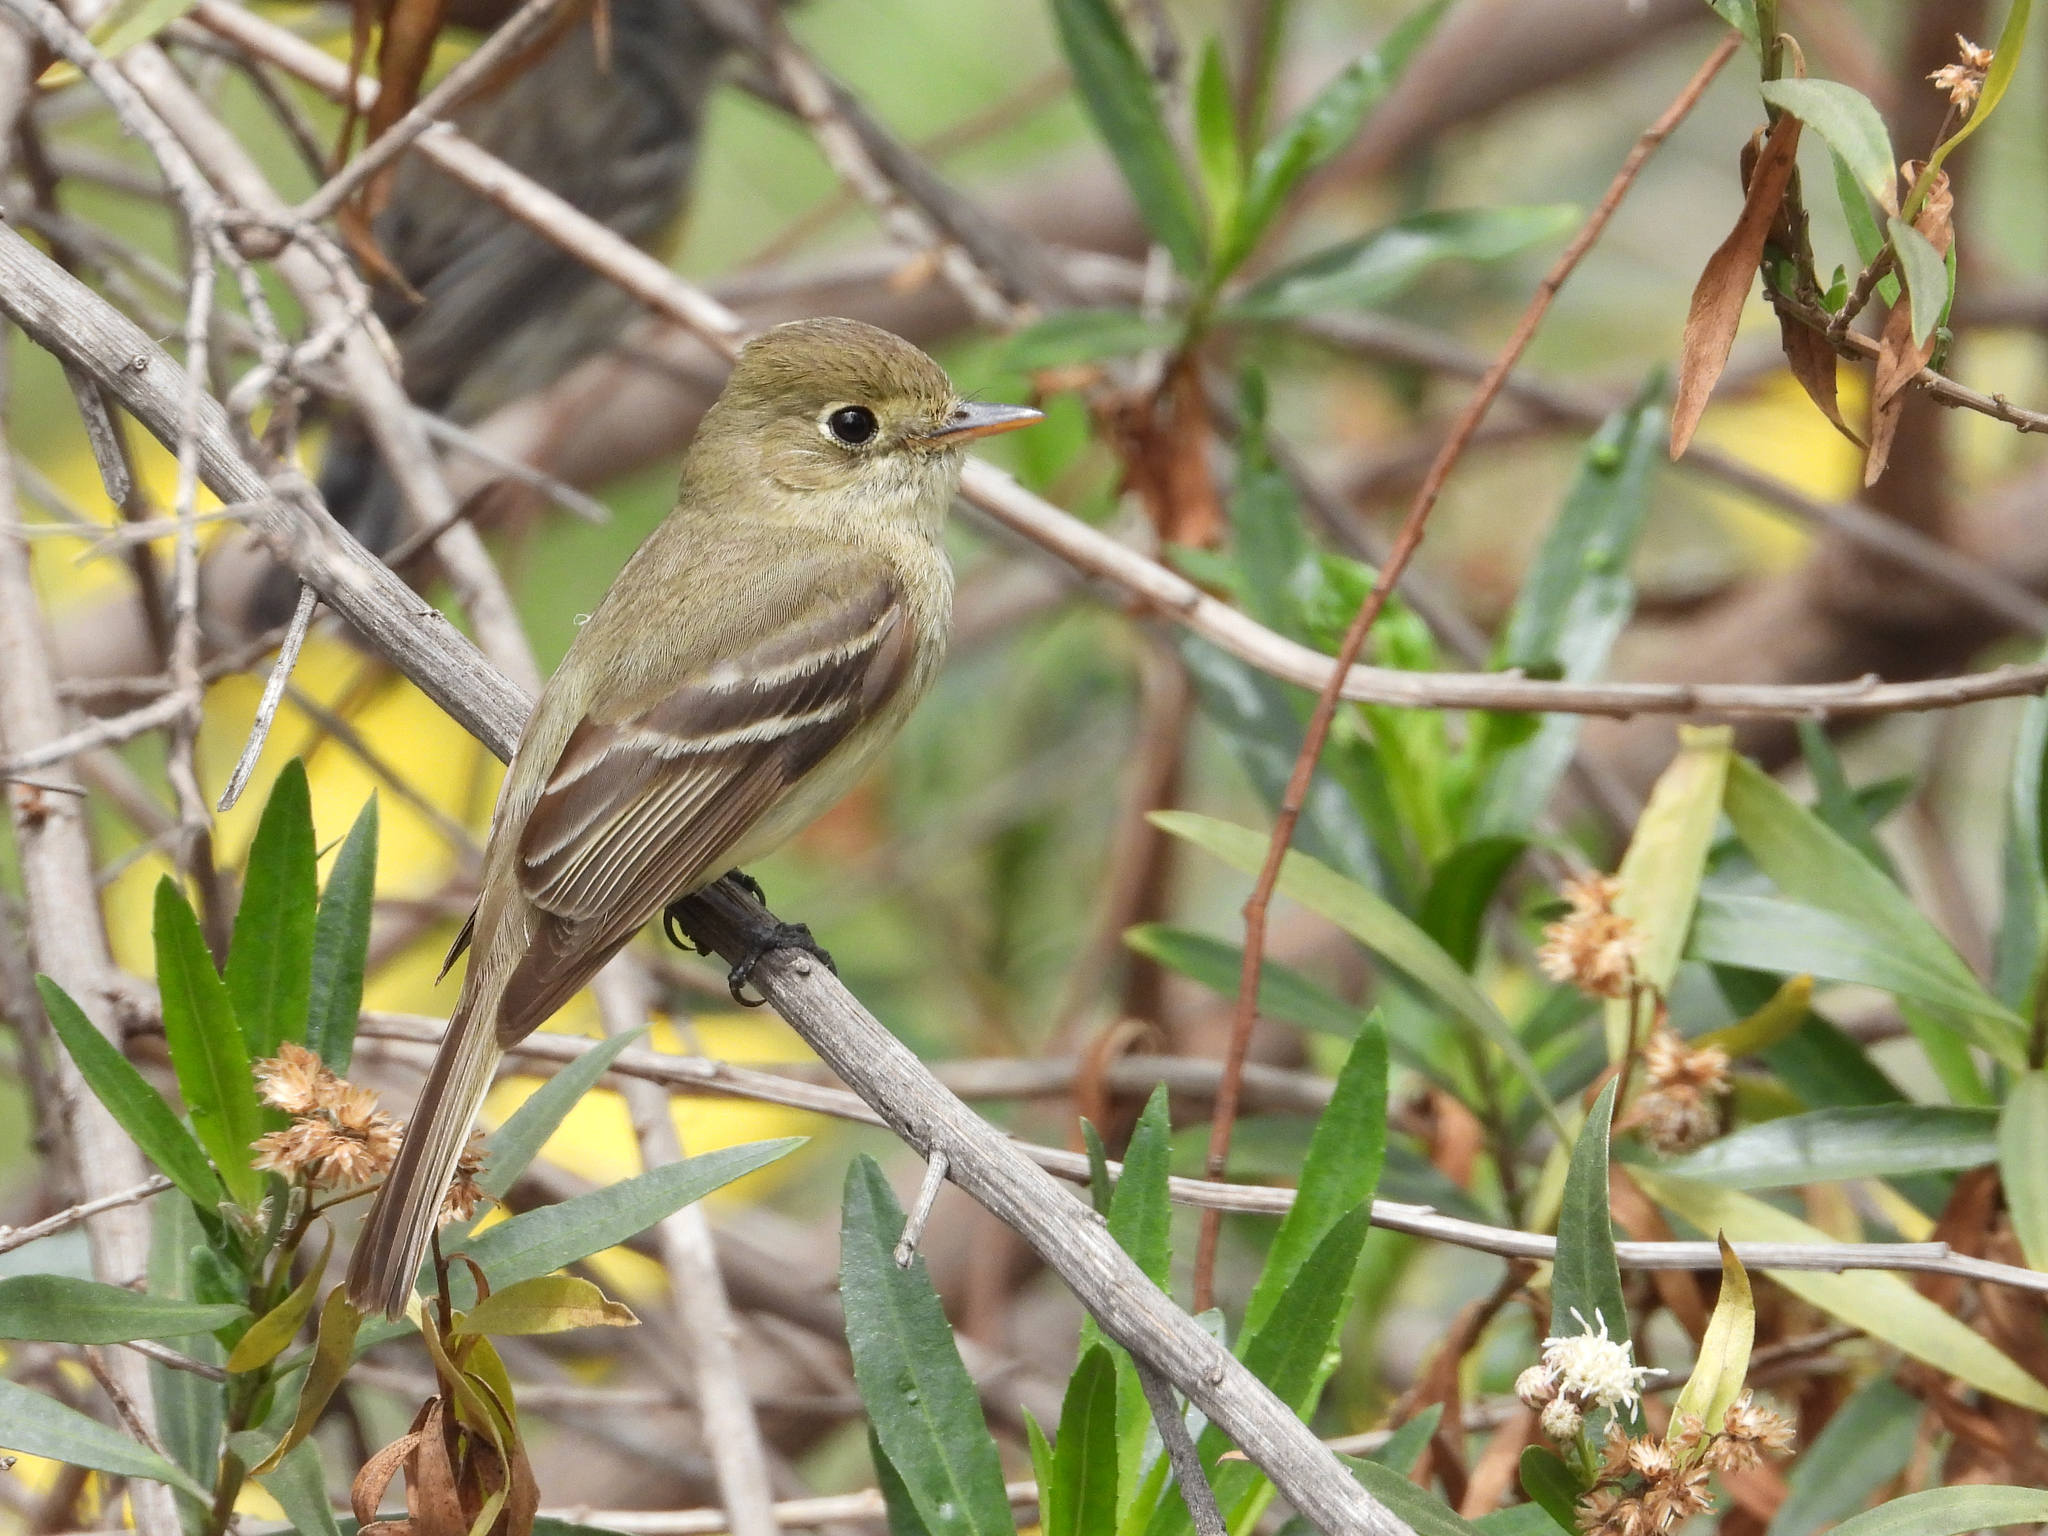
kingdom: Animalia
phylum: Chordata
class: Aves
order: Passeriformes
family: Tyrannidae
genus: Empidonax
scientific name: Empidonax difficilis
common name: Pacific-slope flycatcher
